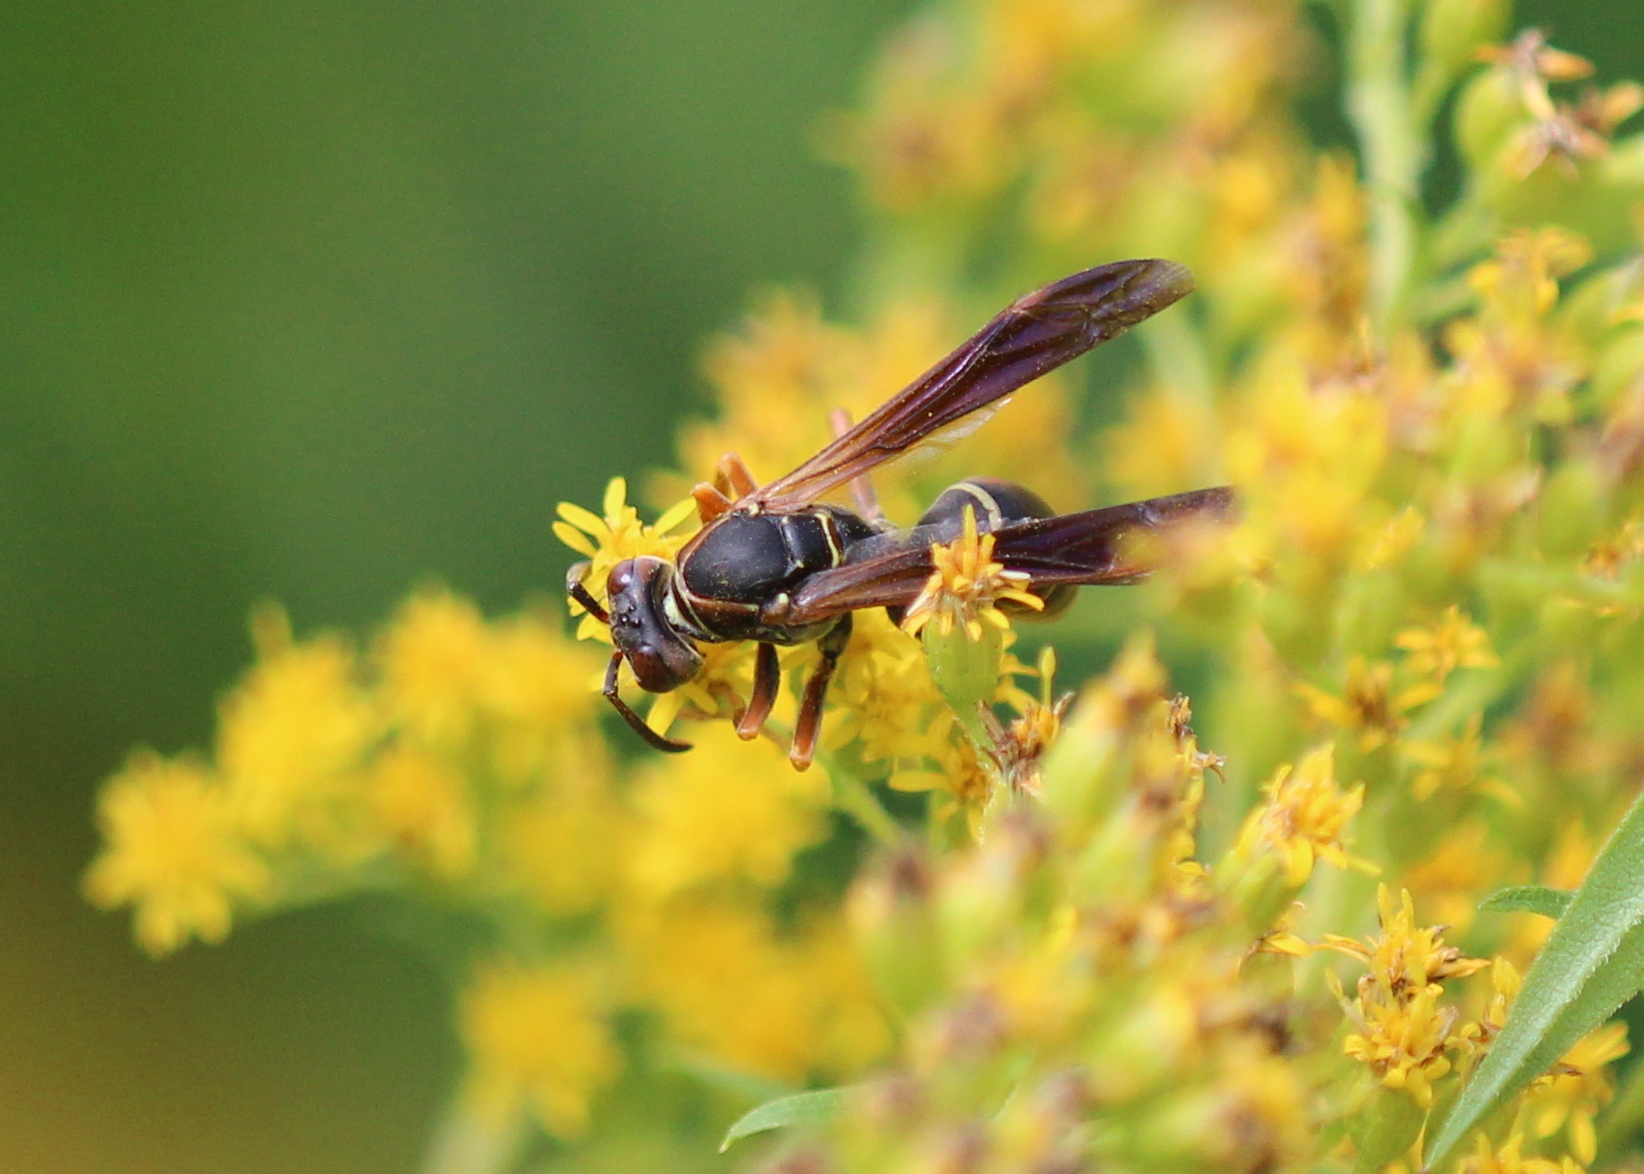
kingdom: Animalia
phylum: Arthropoda
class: Insecta
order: Hymenoptera
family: Eumenidae
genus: Polistes
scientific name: Polistes fuscatus
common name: Dark paper wasp
